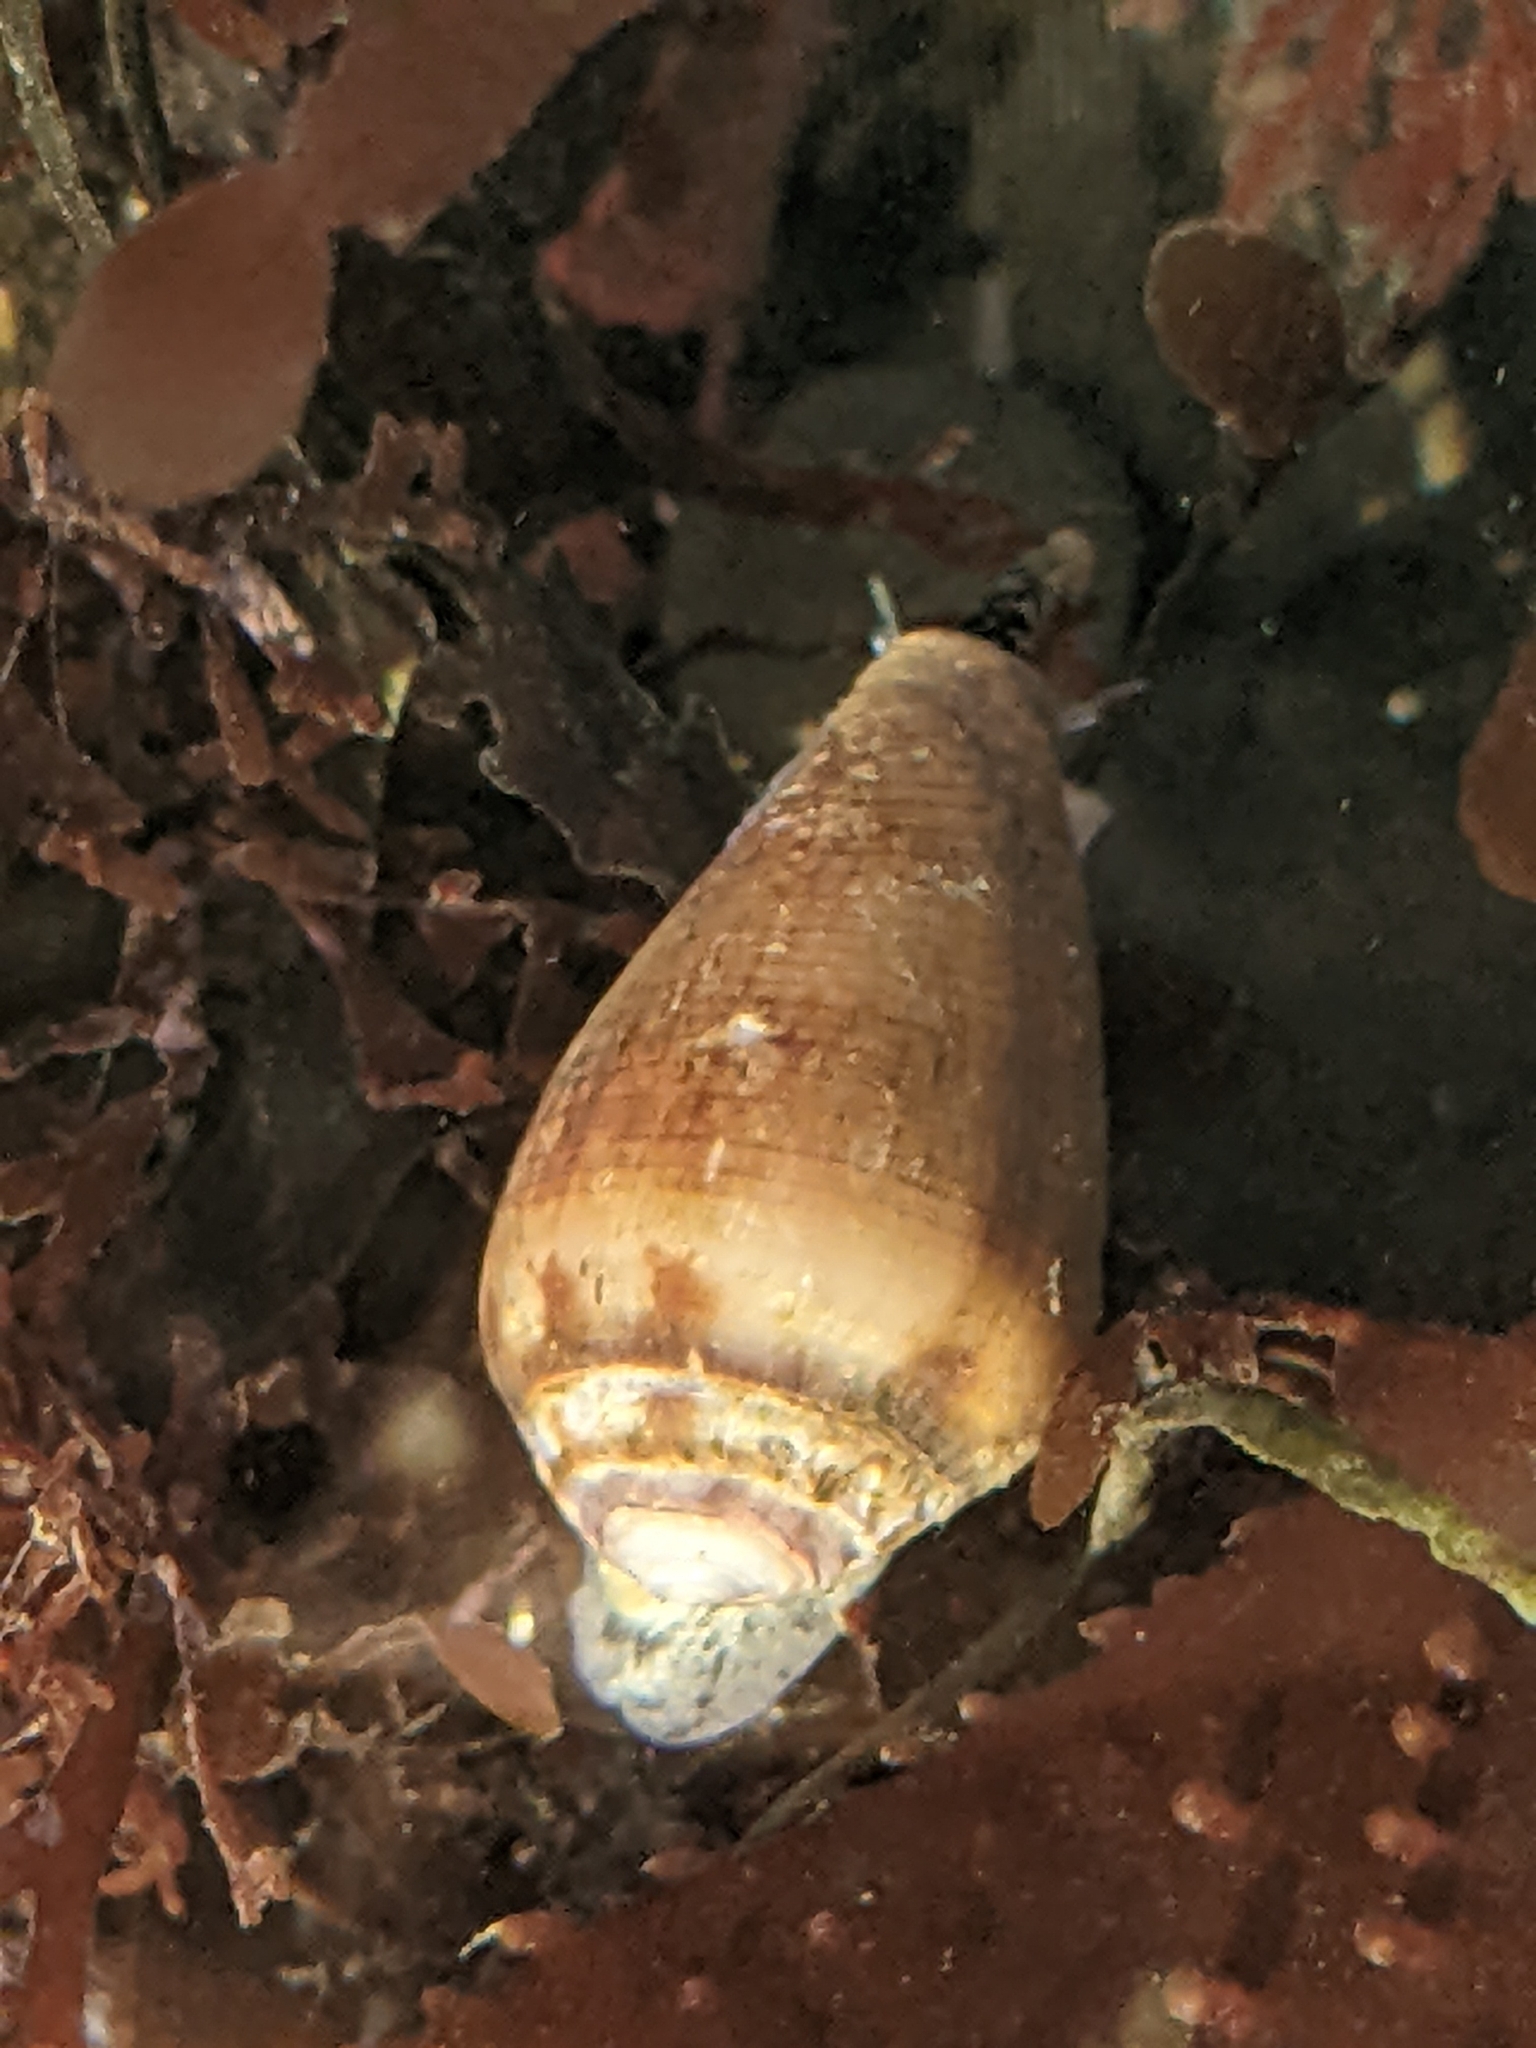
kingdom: Animalia
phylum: Mollusca
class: Gastropoda
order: Neogastropoda
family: Conidae
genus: Californiconus
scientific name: Californiconus californicus
